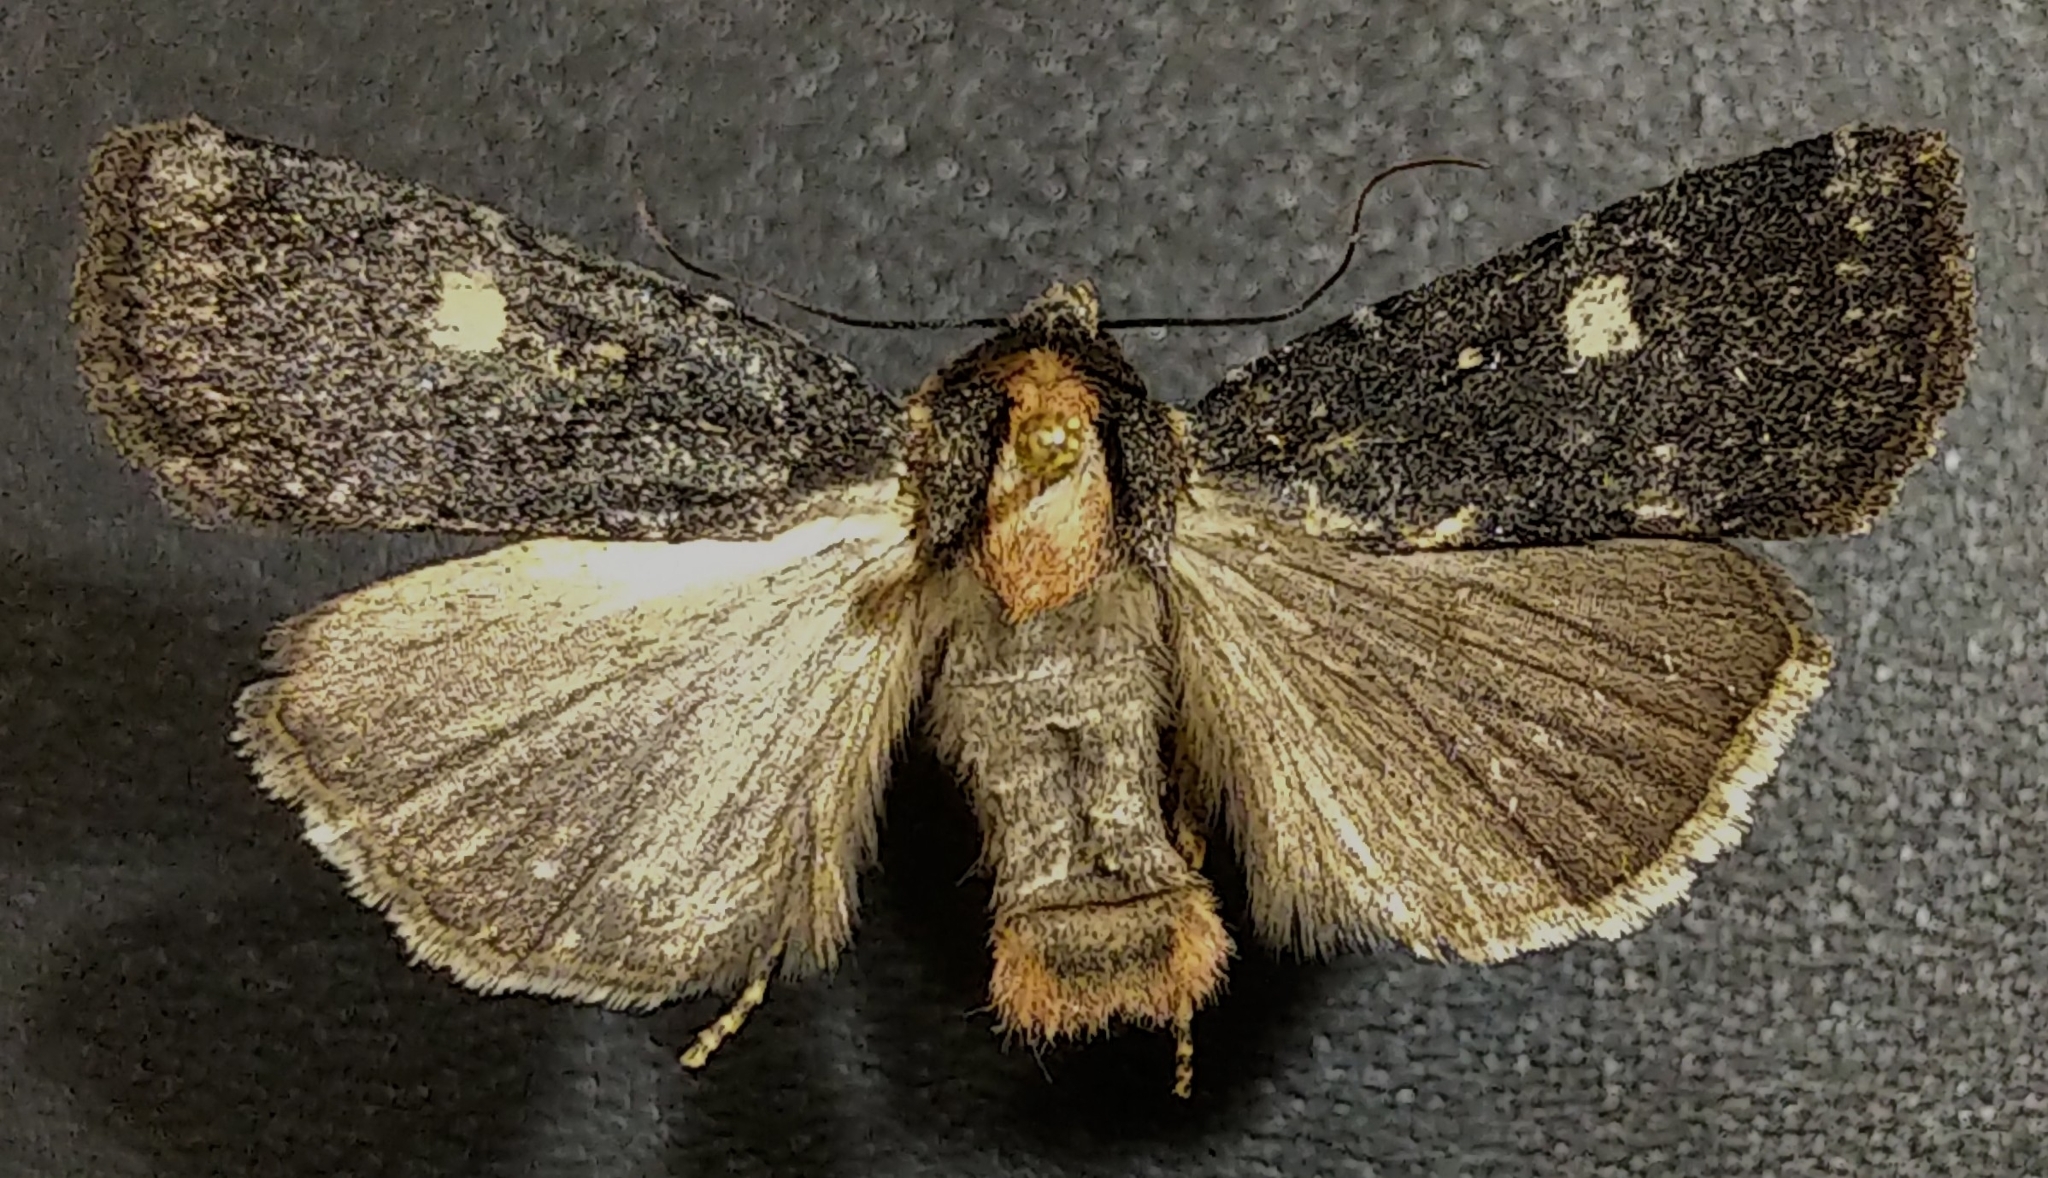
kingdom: Animalia
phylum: Arthropoda
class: Insecta
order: Lepidoptera
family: Noctuidae
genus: Abagrotis
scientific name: Abagrotis mirabilis
